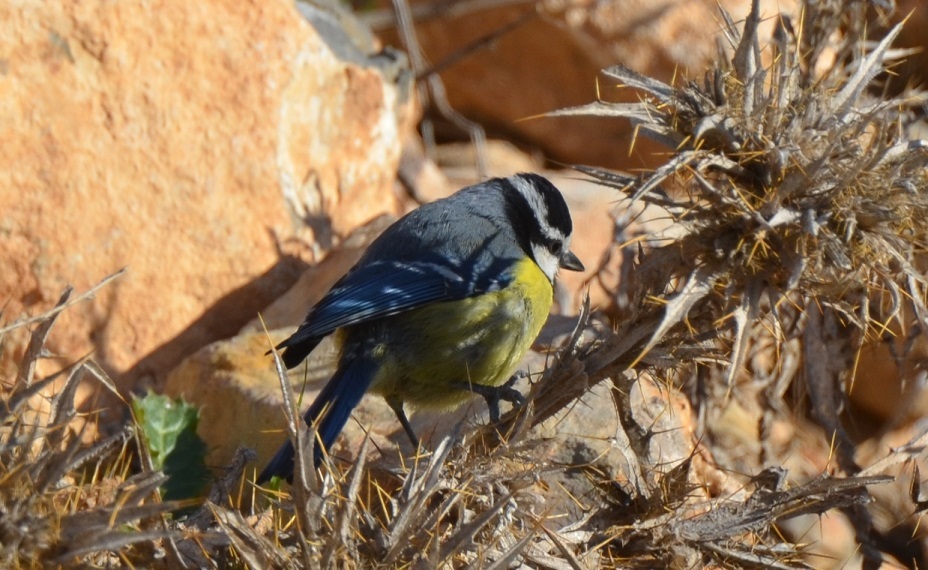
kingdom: Animalia
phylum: Chordata
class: Aves
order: Passeriformes
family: Paridae
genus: Cyanistes
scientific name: Cyanistes teneriffae
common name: African blue tit
